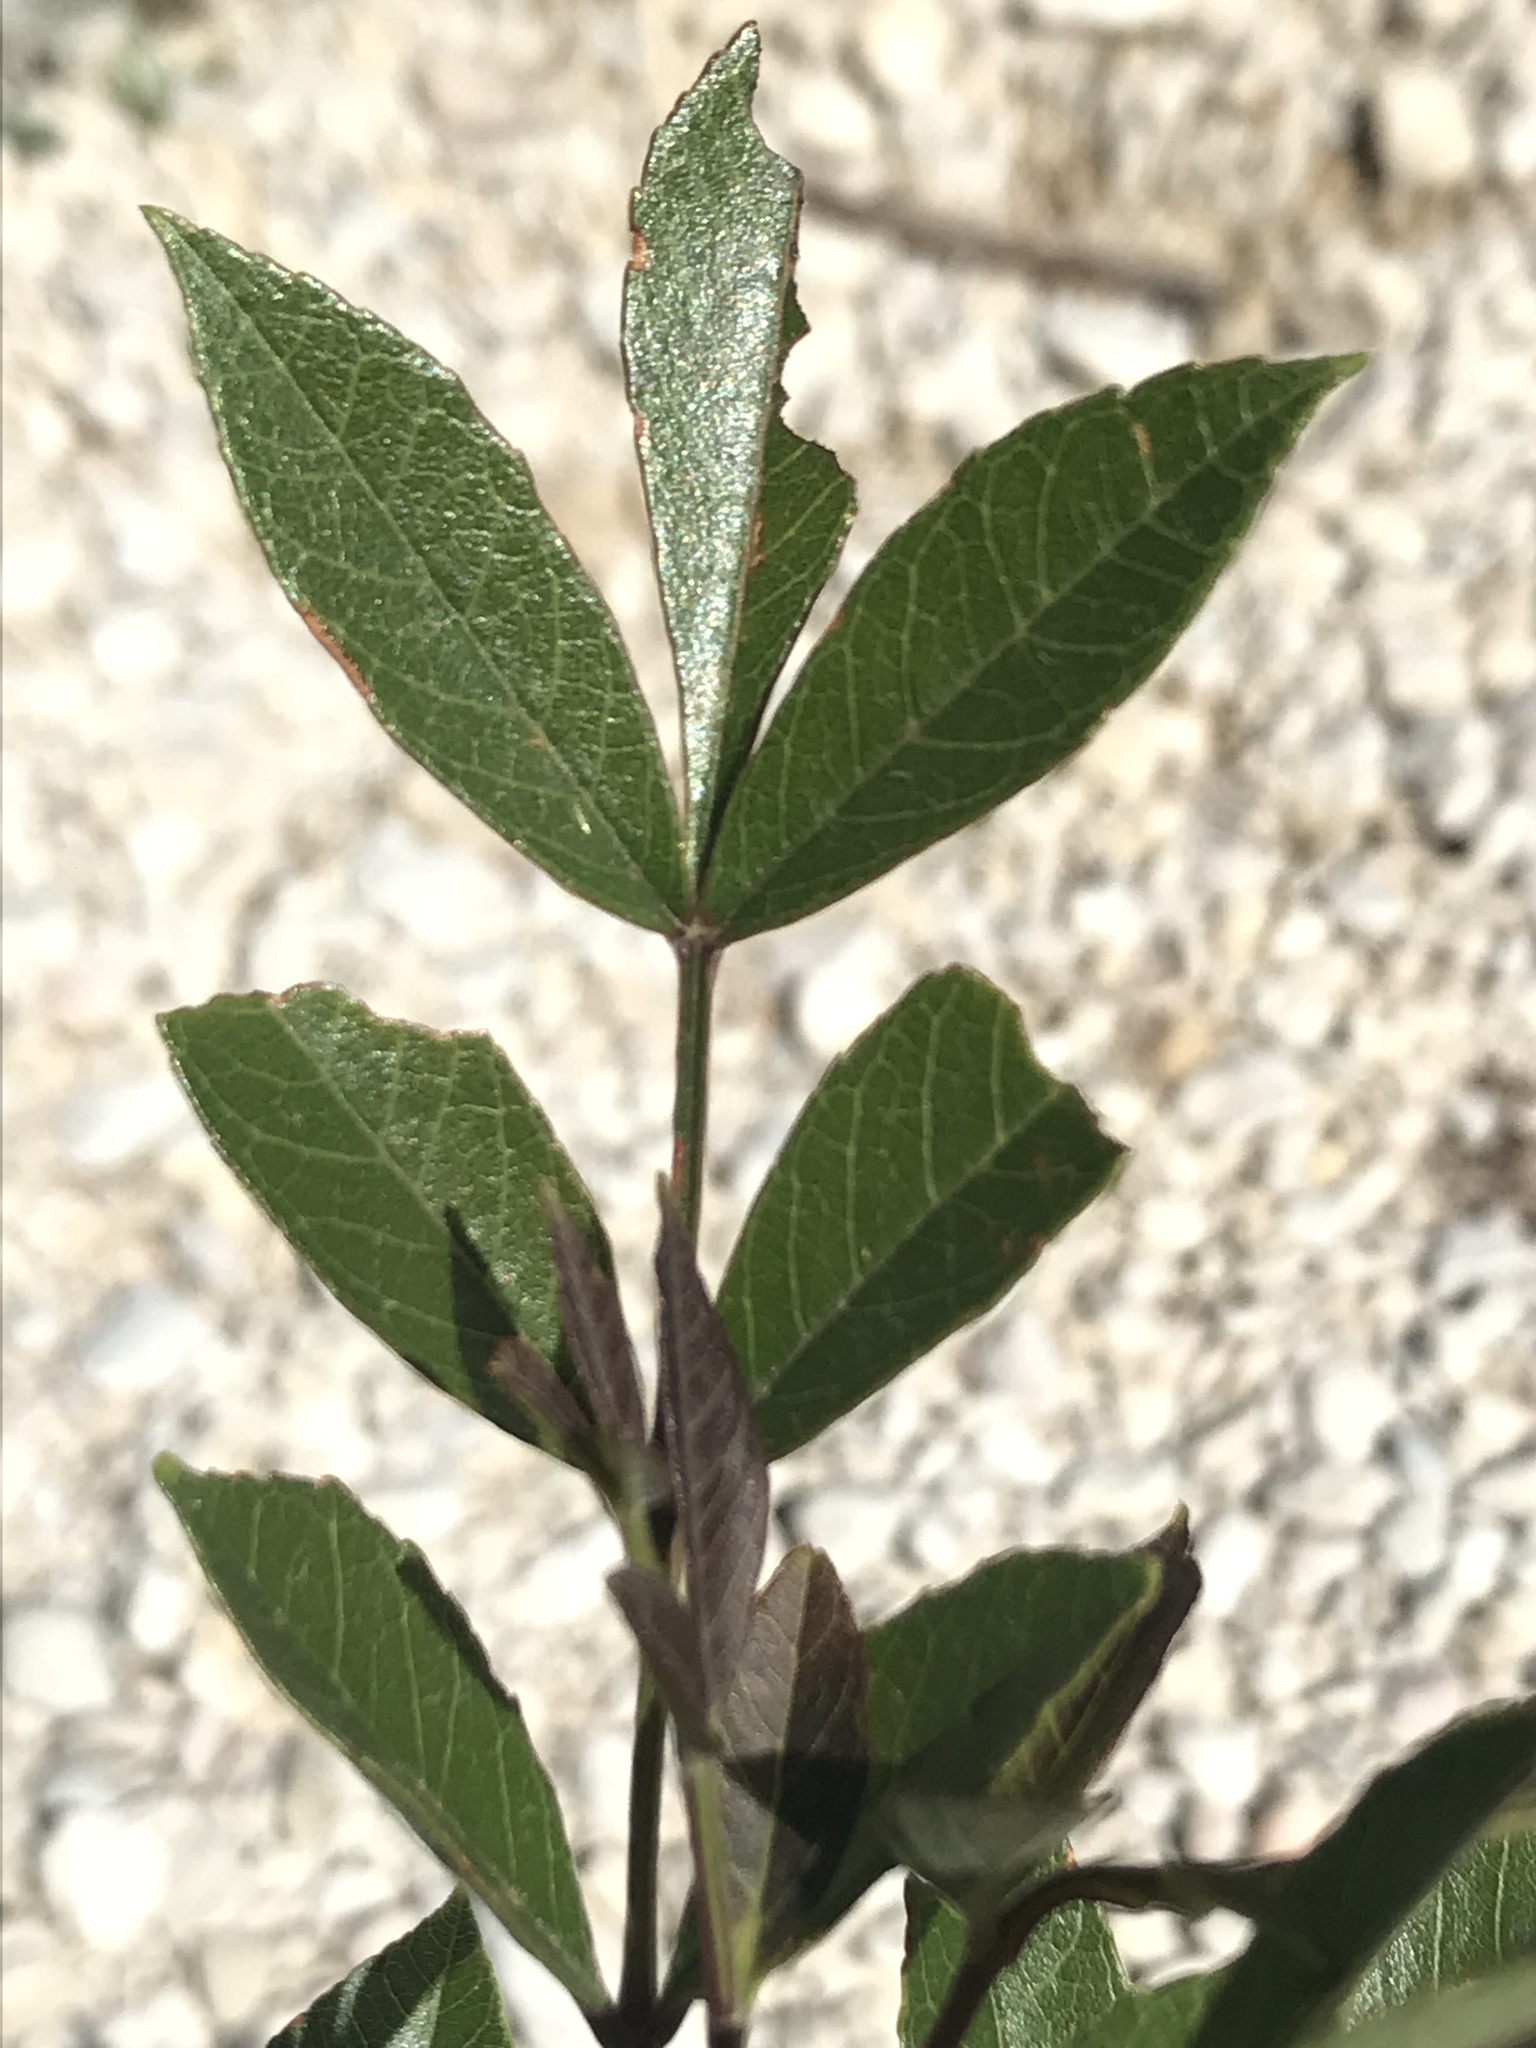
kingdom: Plantae
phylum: Tracheophyta
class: Magnoliopsida
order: Lamiales
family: Oleaceae
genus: Fraxinus
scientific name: Fraxinus velutina
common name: Arizon ash
